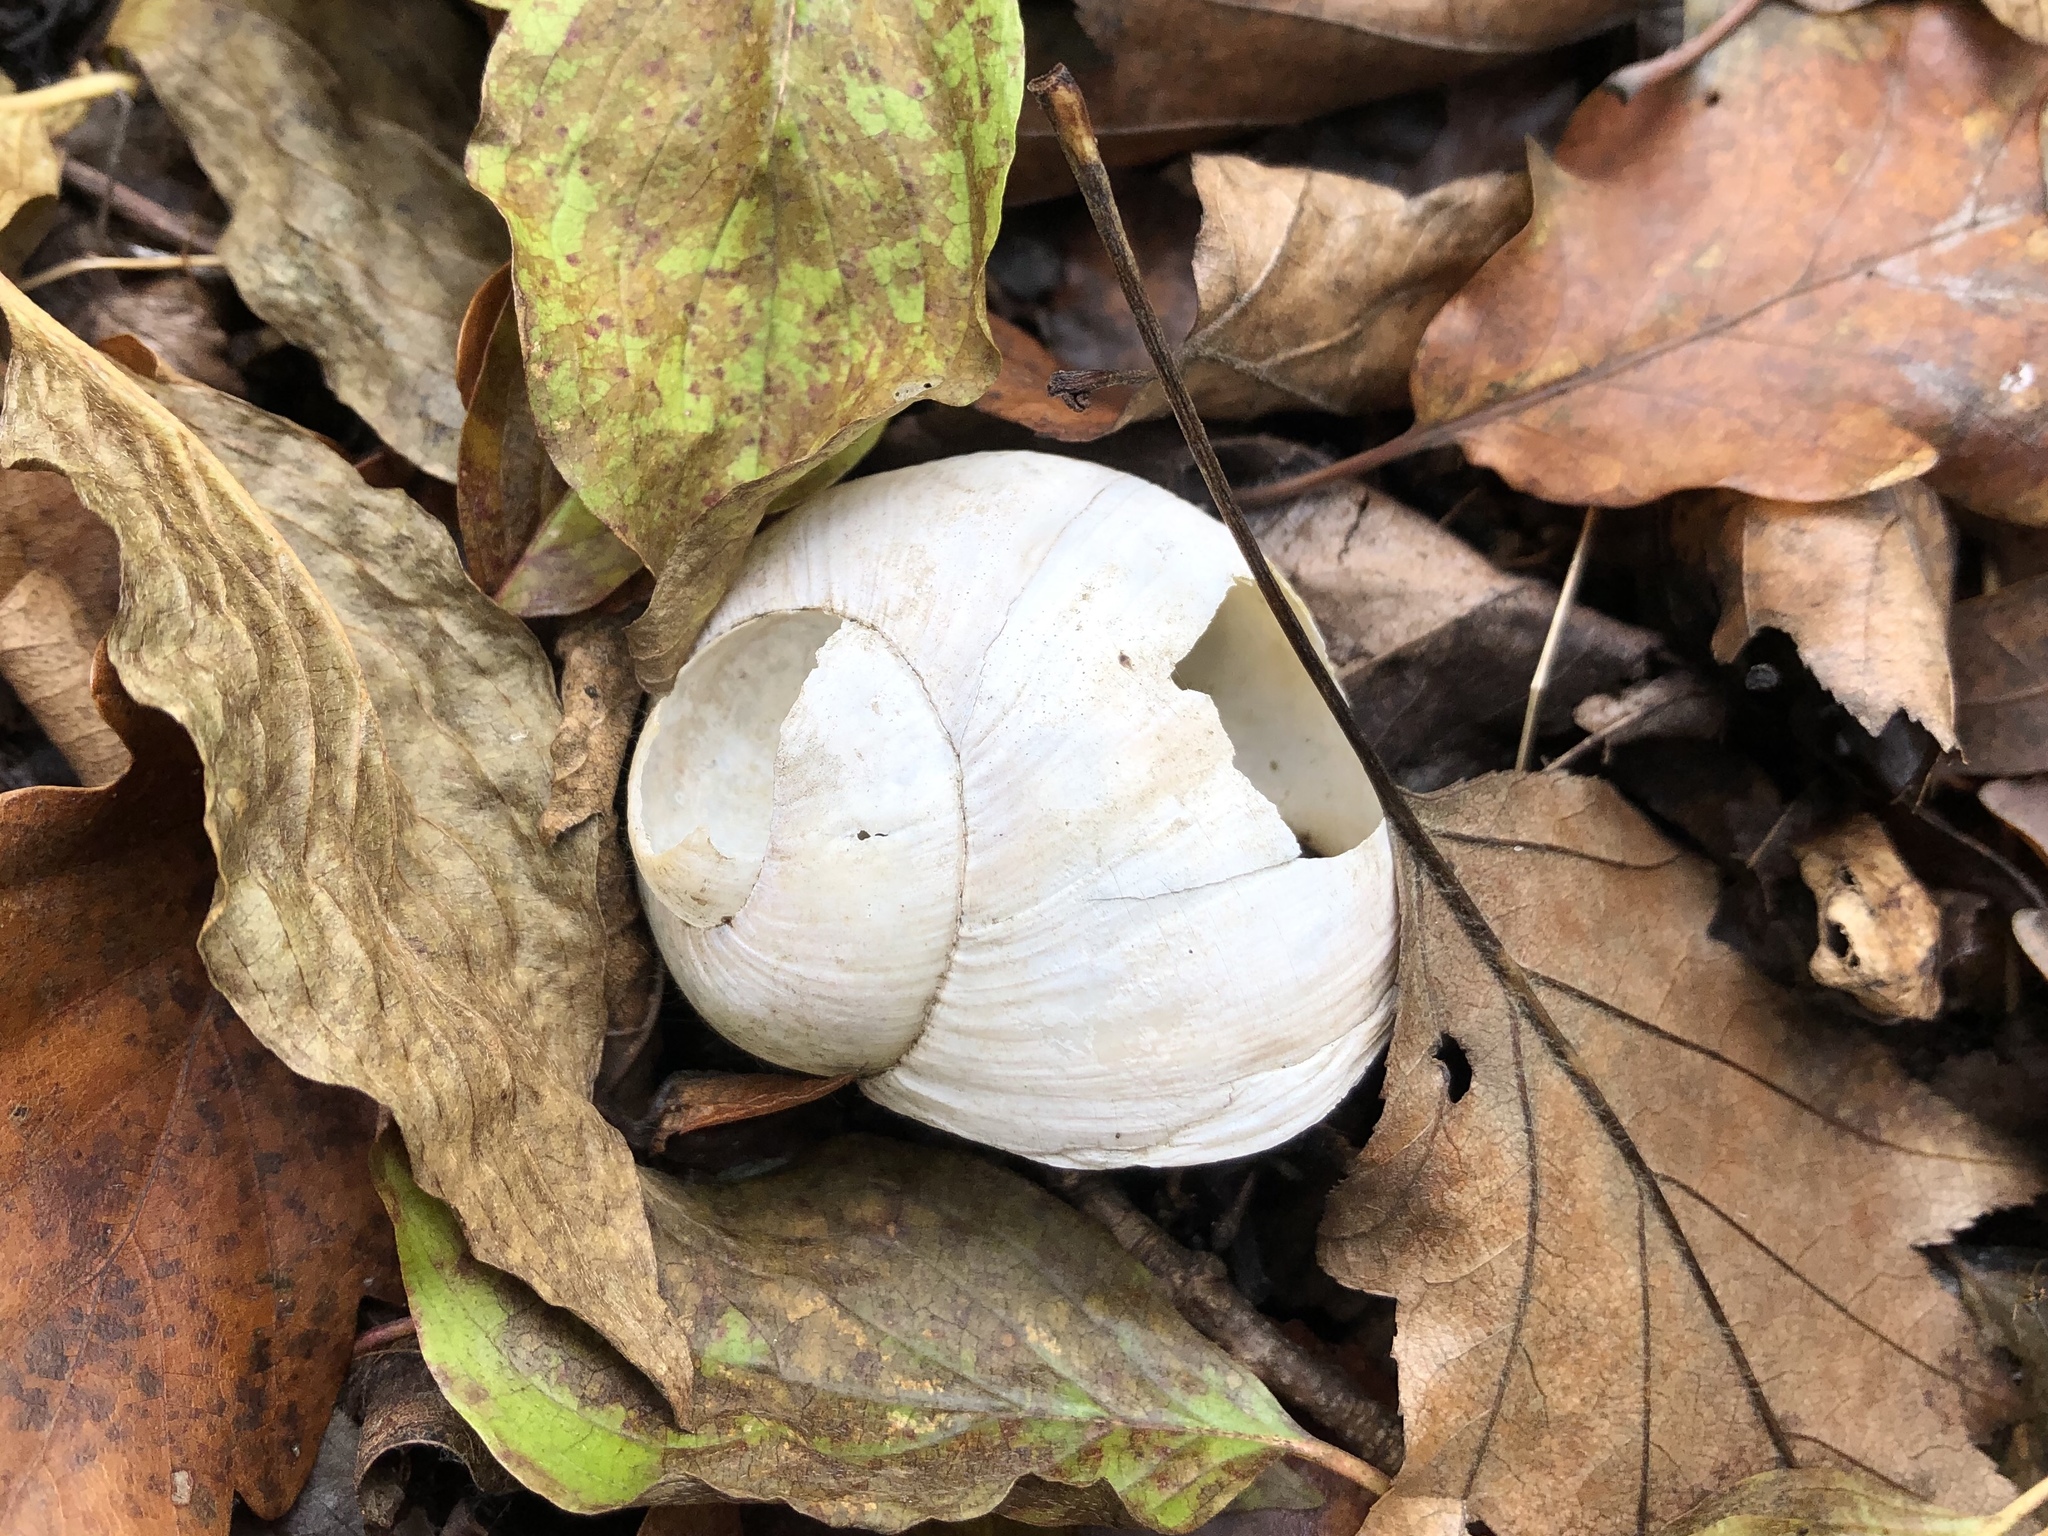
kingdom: Animalia
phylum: Mollusca
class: Gastropoda
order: Stylommatophora
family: Helicidae
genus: Helix
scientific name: Helix pomatia
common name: Roman snail
